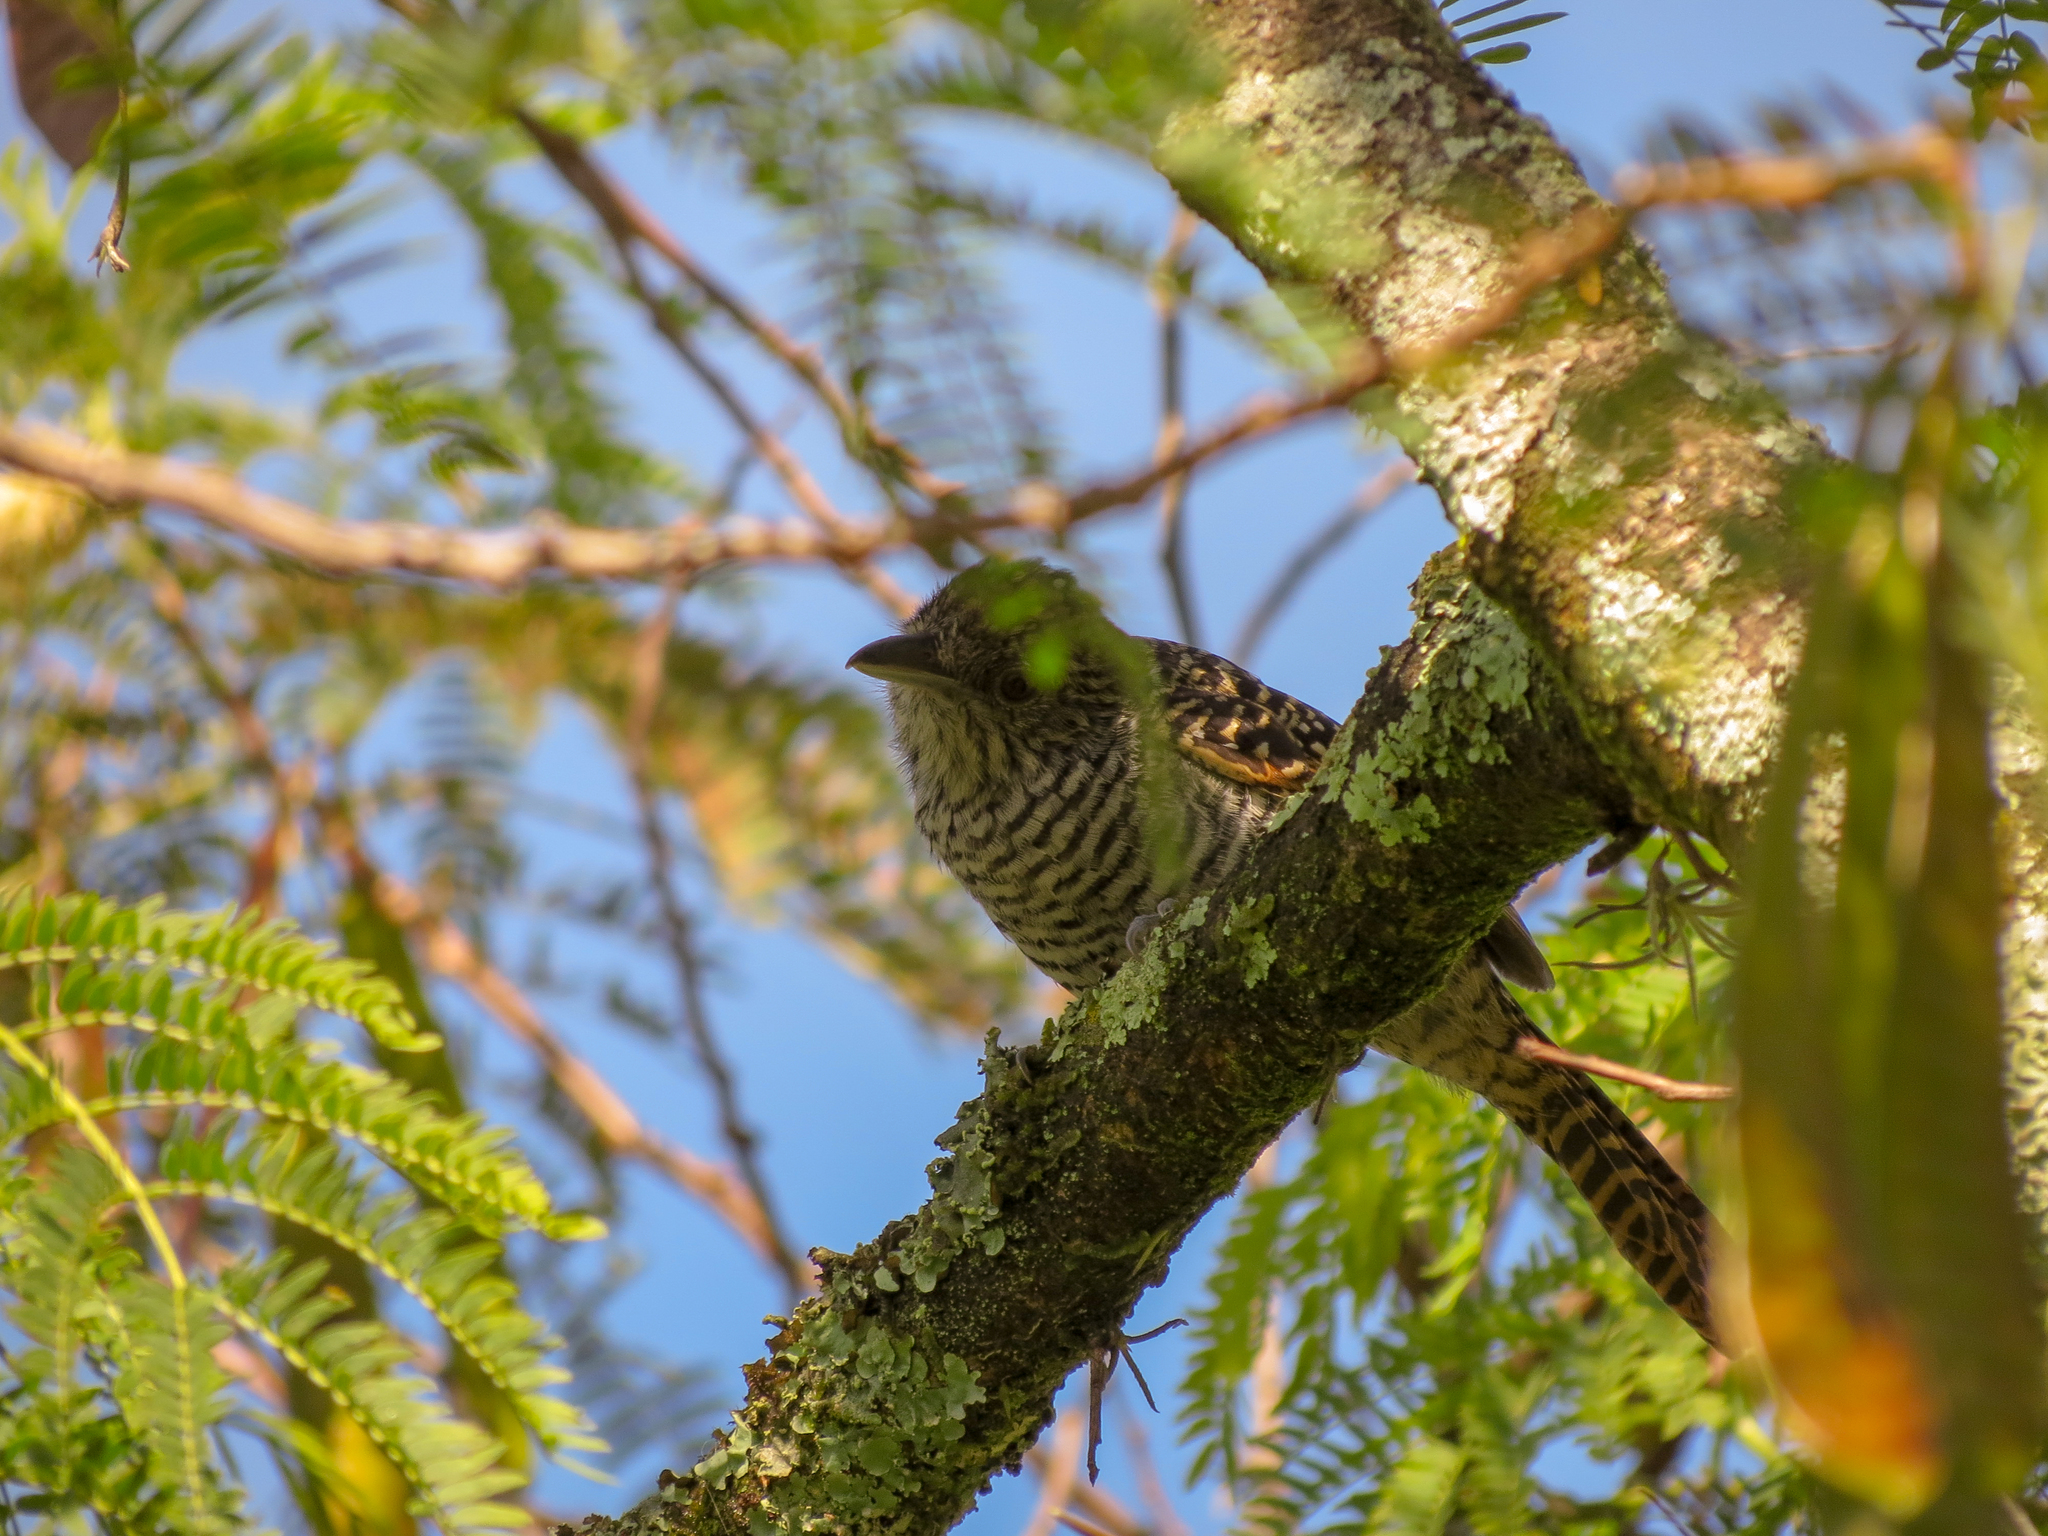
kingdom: Animalia
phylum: Chordata
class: Aves
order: Passeriformes
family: Thamnophilidae
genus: Thamnophilus
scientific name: Thamnophilus multistriatus
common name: Bar-crested antshrike
